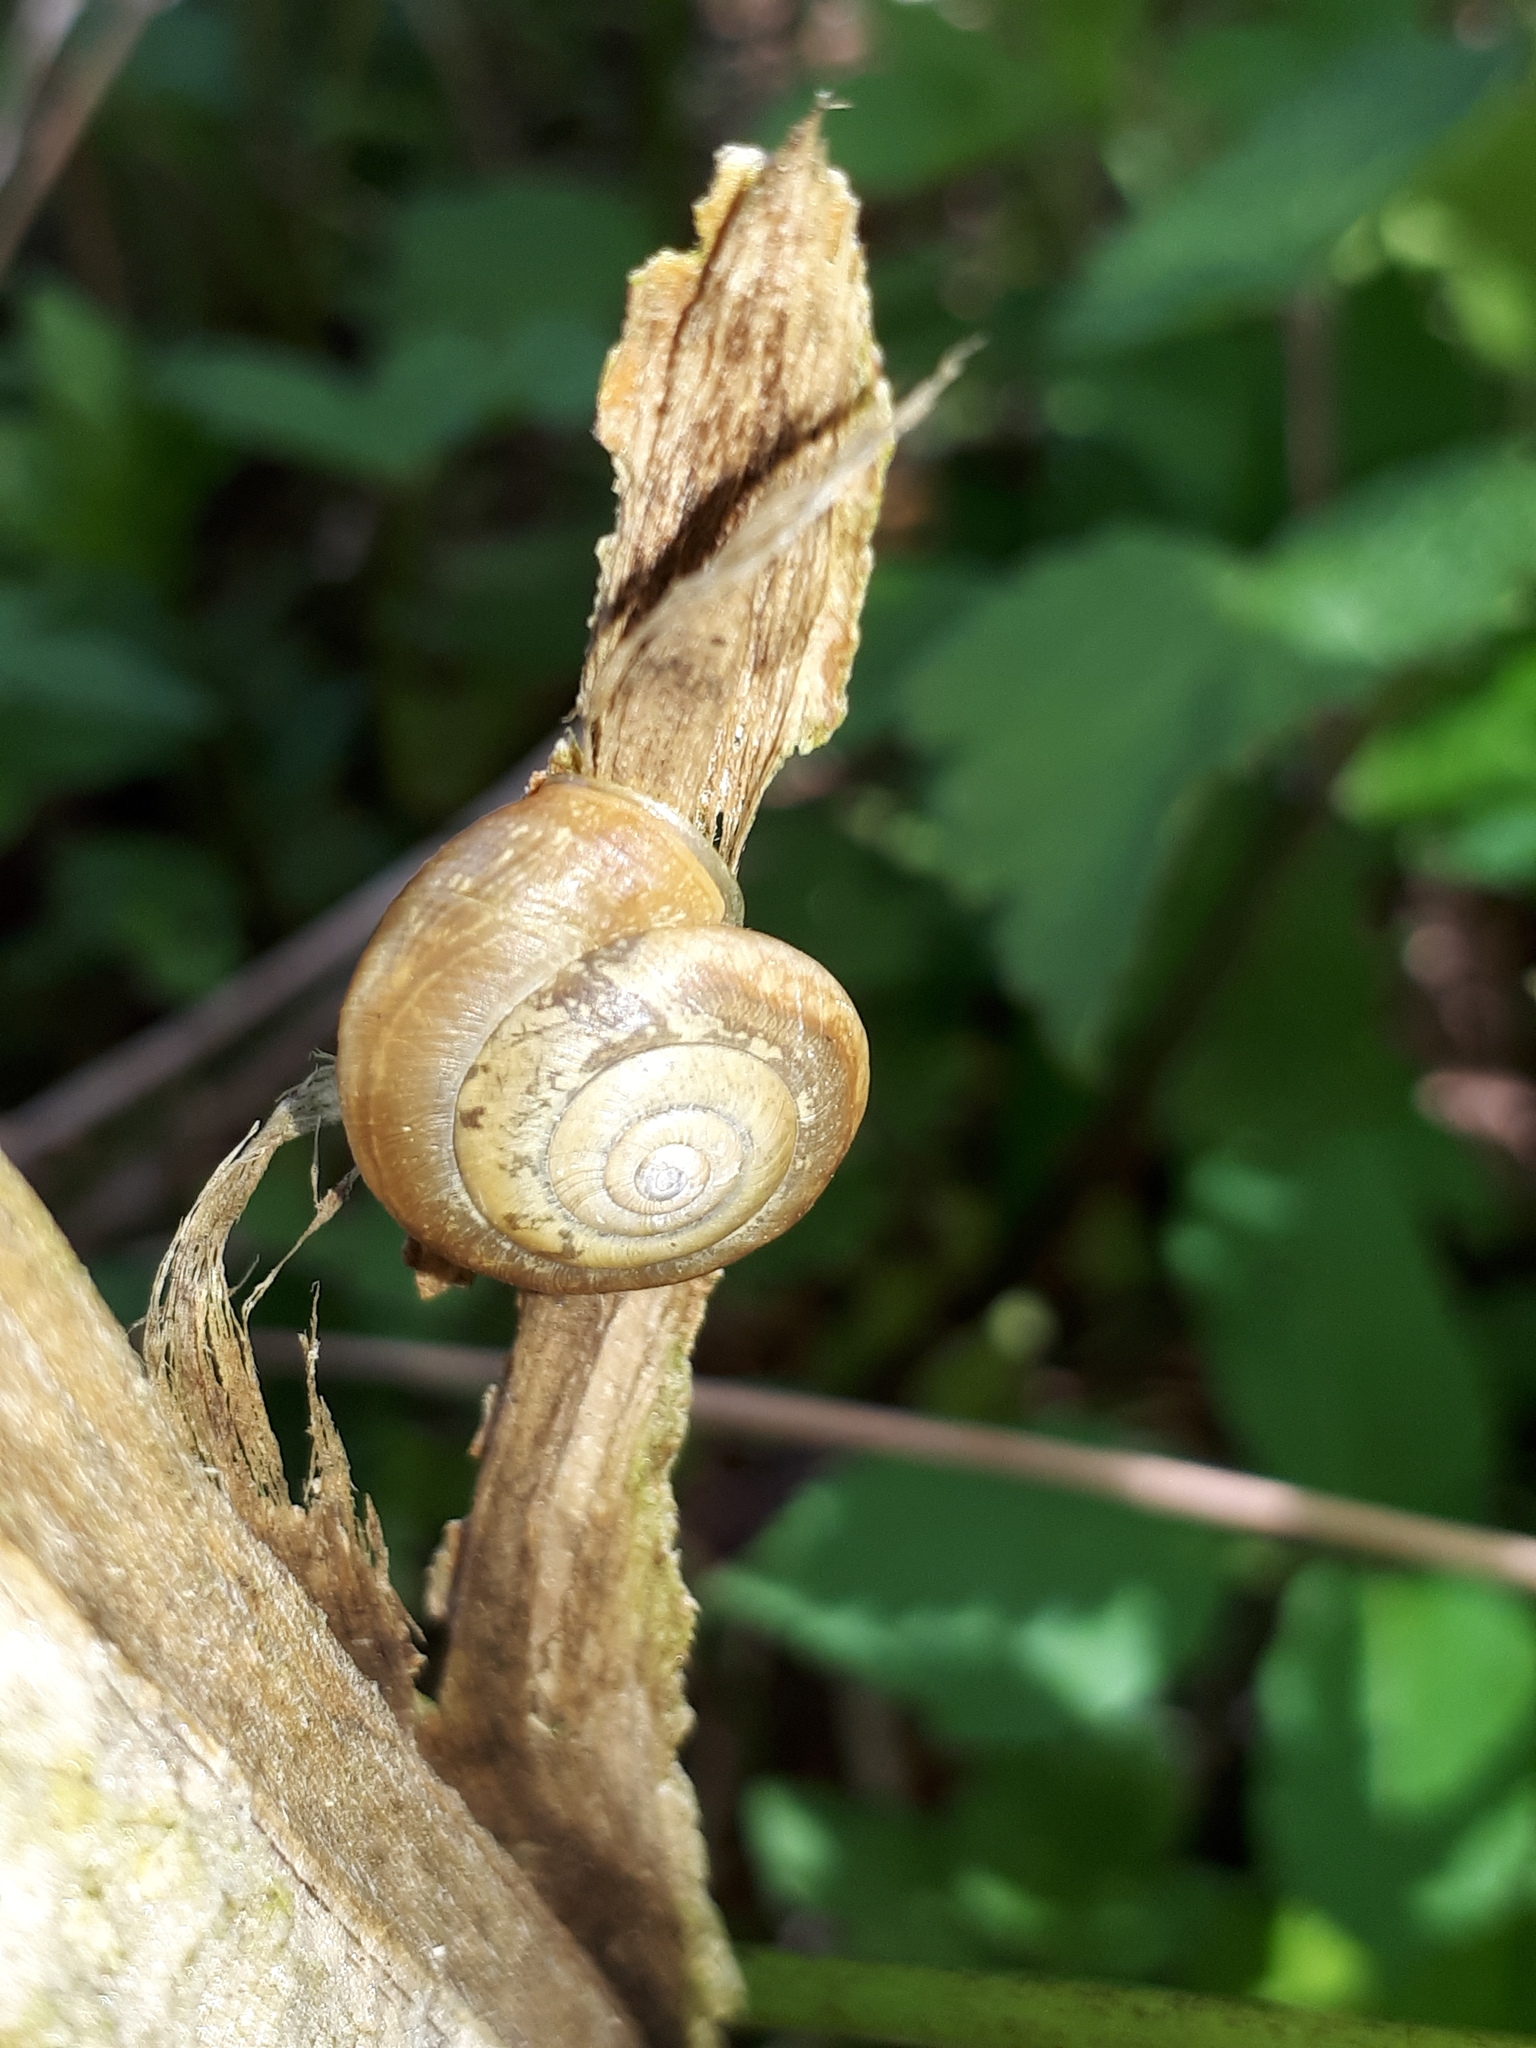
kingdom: Animalia
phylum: Mollusca
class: Gastropoda
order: Stylommatophora
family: Hygromiidae
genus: Urticicola
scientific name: Urticicola umbrosus
